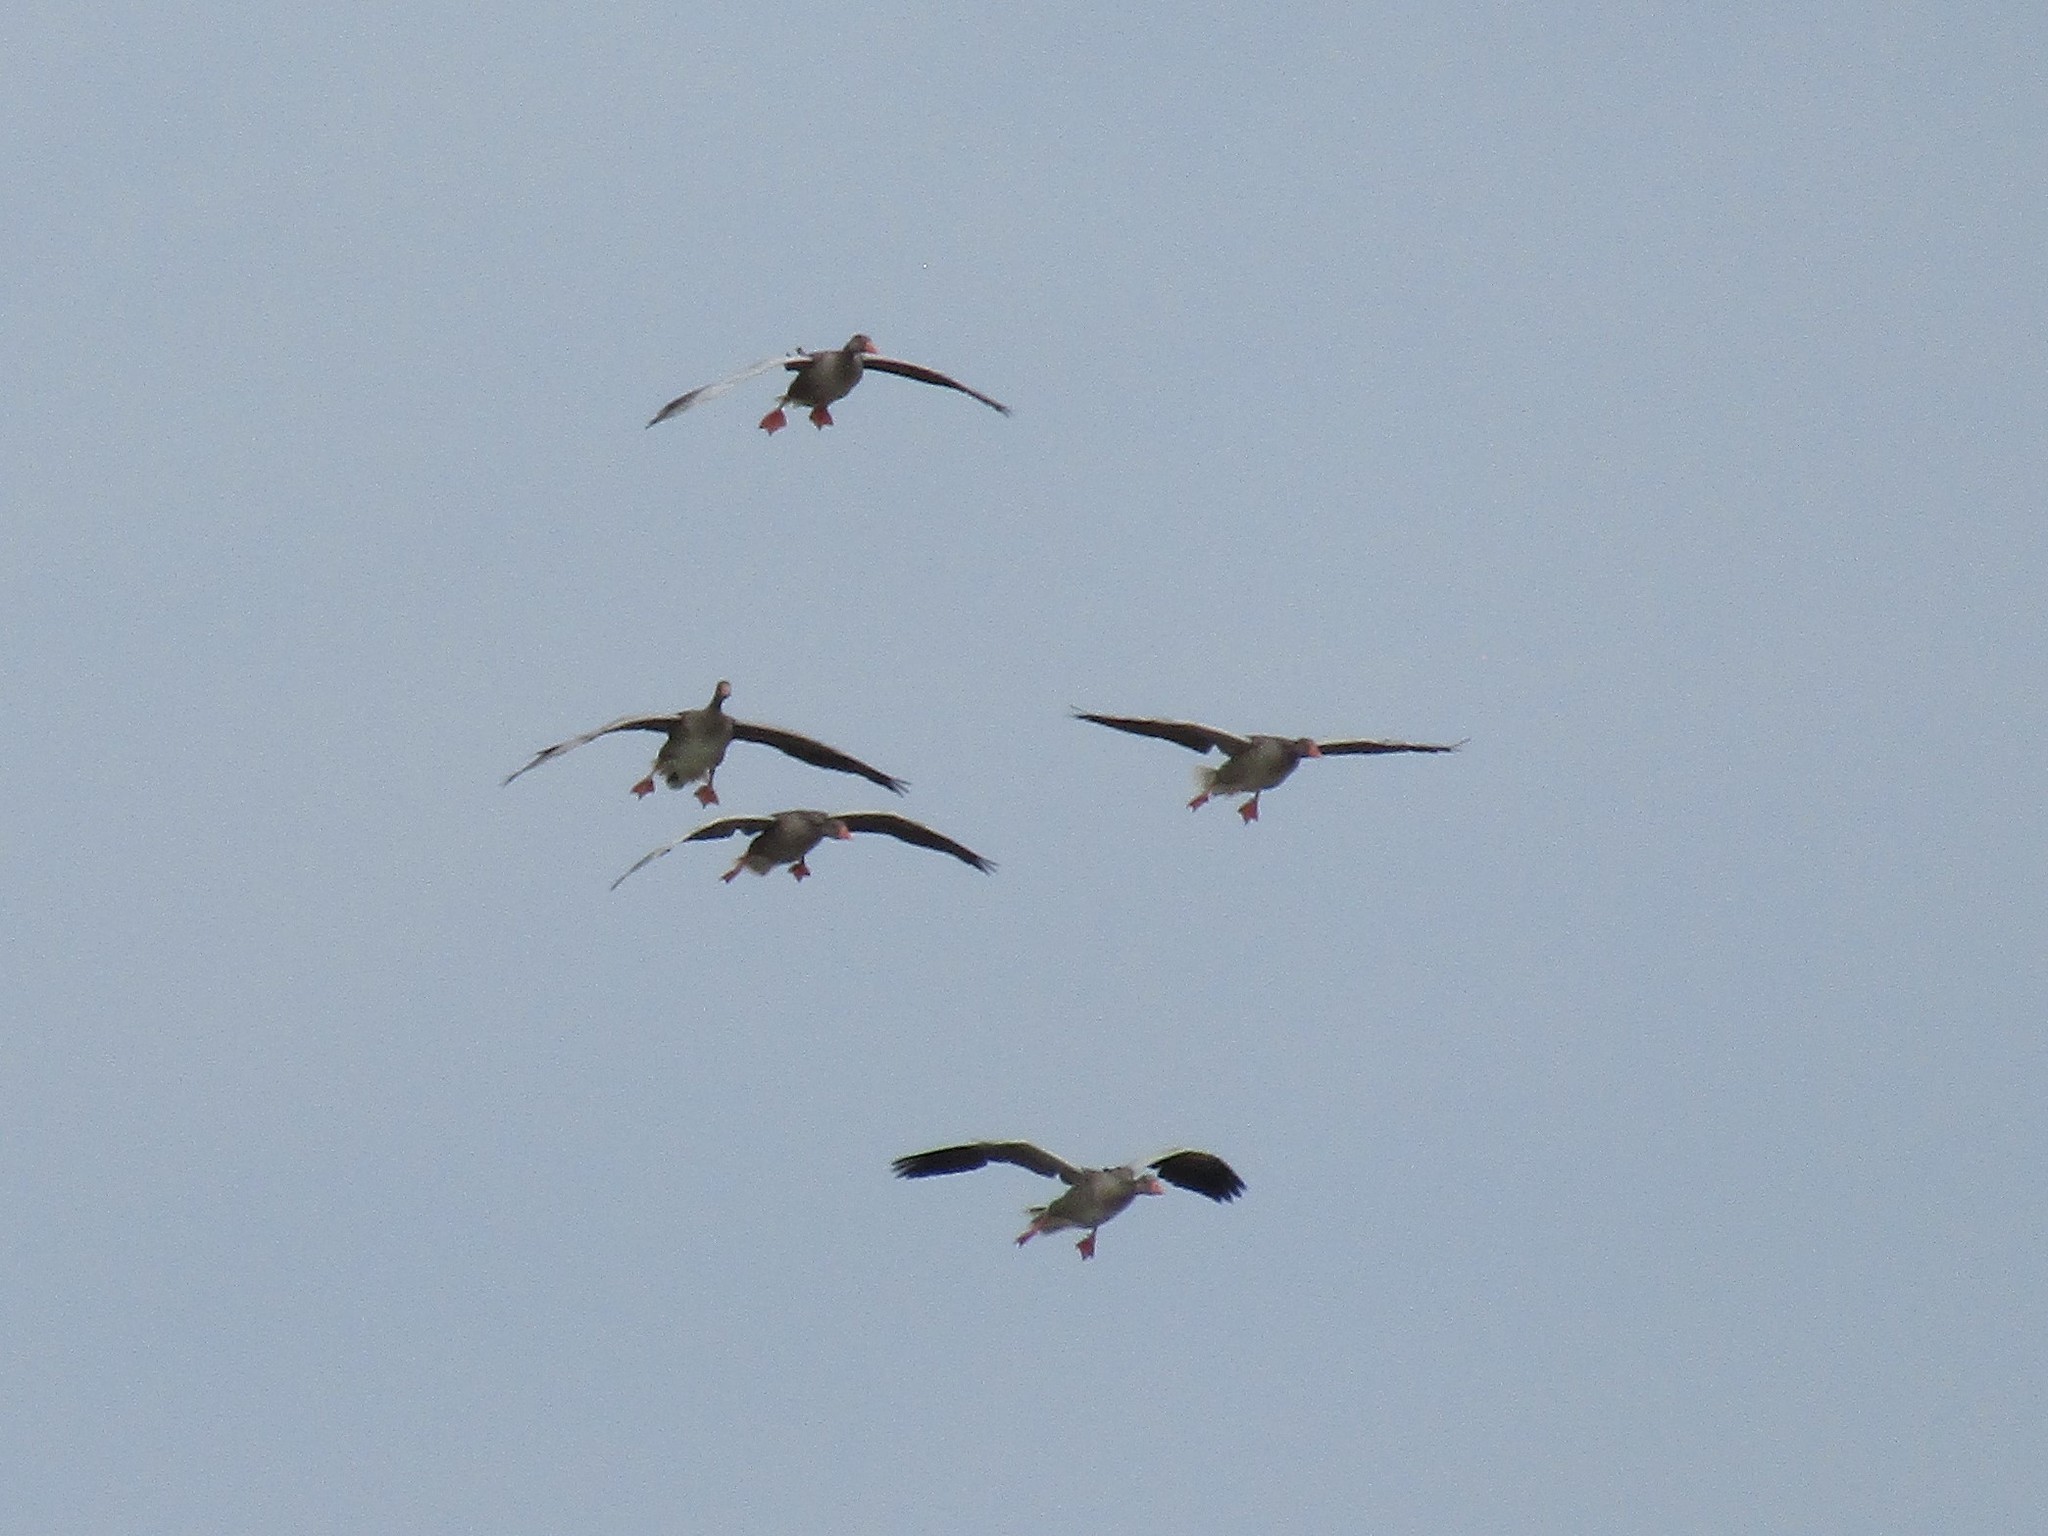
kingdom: Animalia
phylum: Chordata
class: Aves
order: Anseriformes
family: Anatidae
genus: Anser
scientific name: Anser anser
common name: Greylag goose
